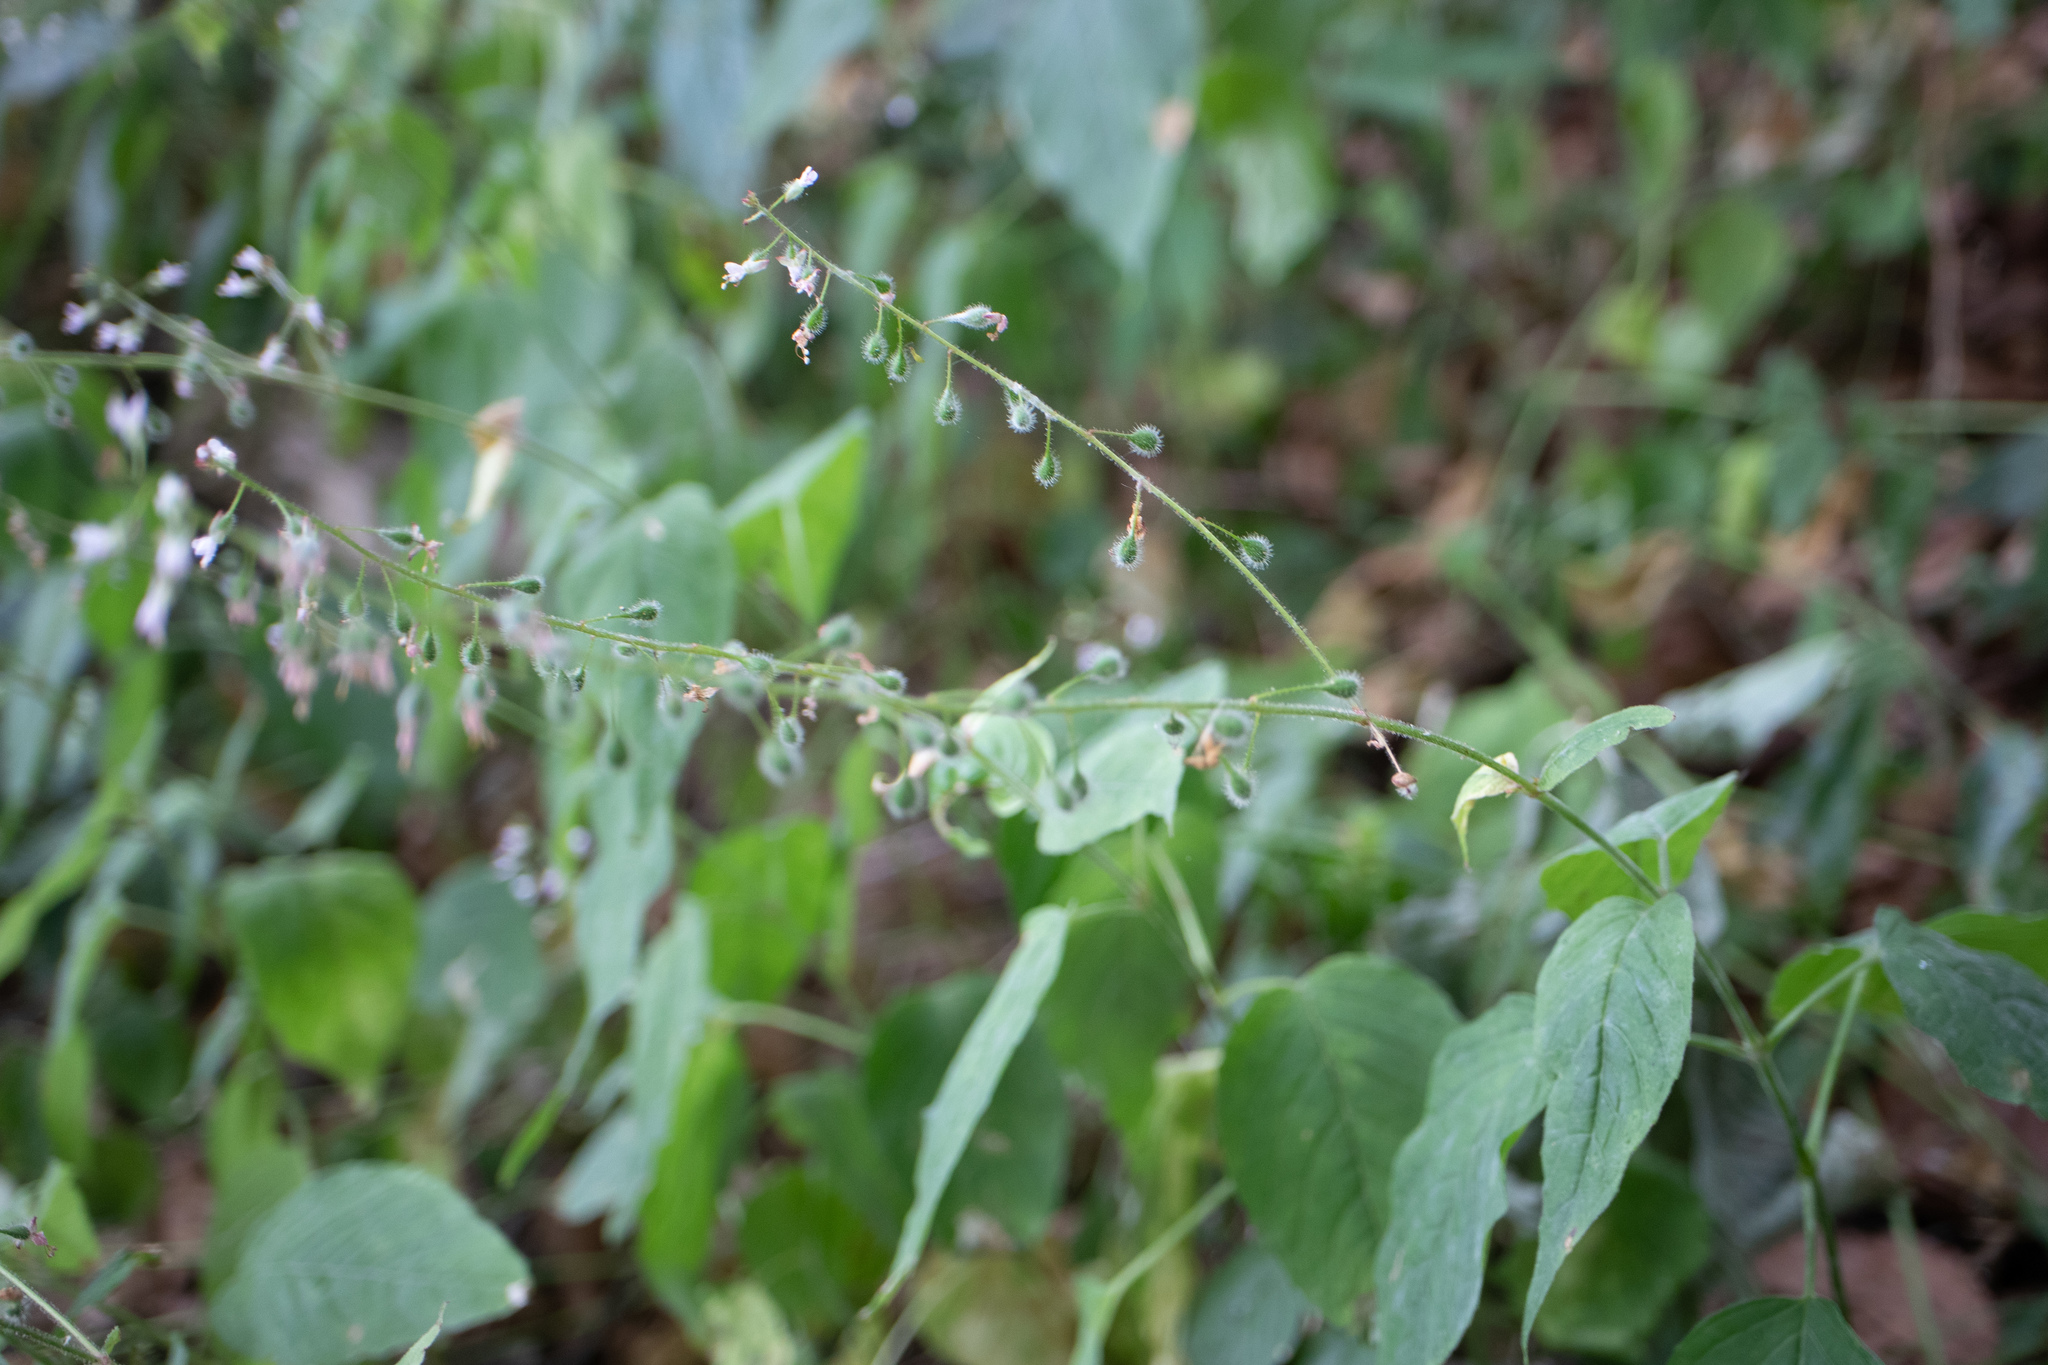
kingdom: Plantae
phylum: Tracheophyta
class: Magnoliopsida
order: Myrtales
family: Onagraceae
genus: Circaea
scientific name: Circaea lutetiana
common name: Enchanter's-nightshade
